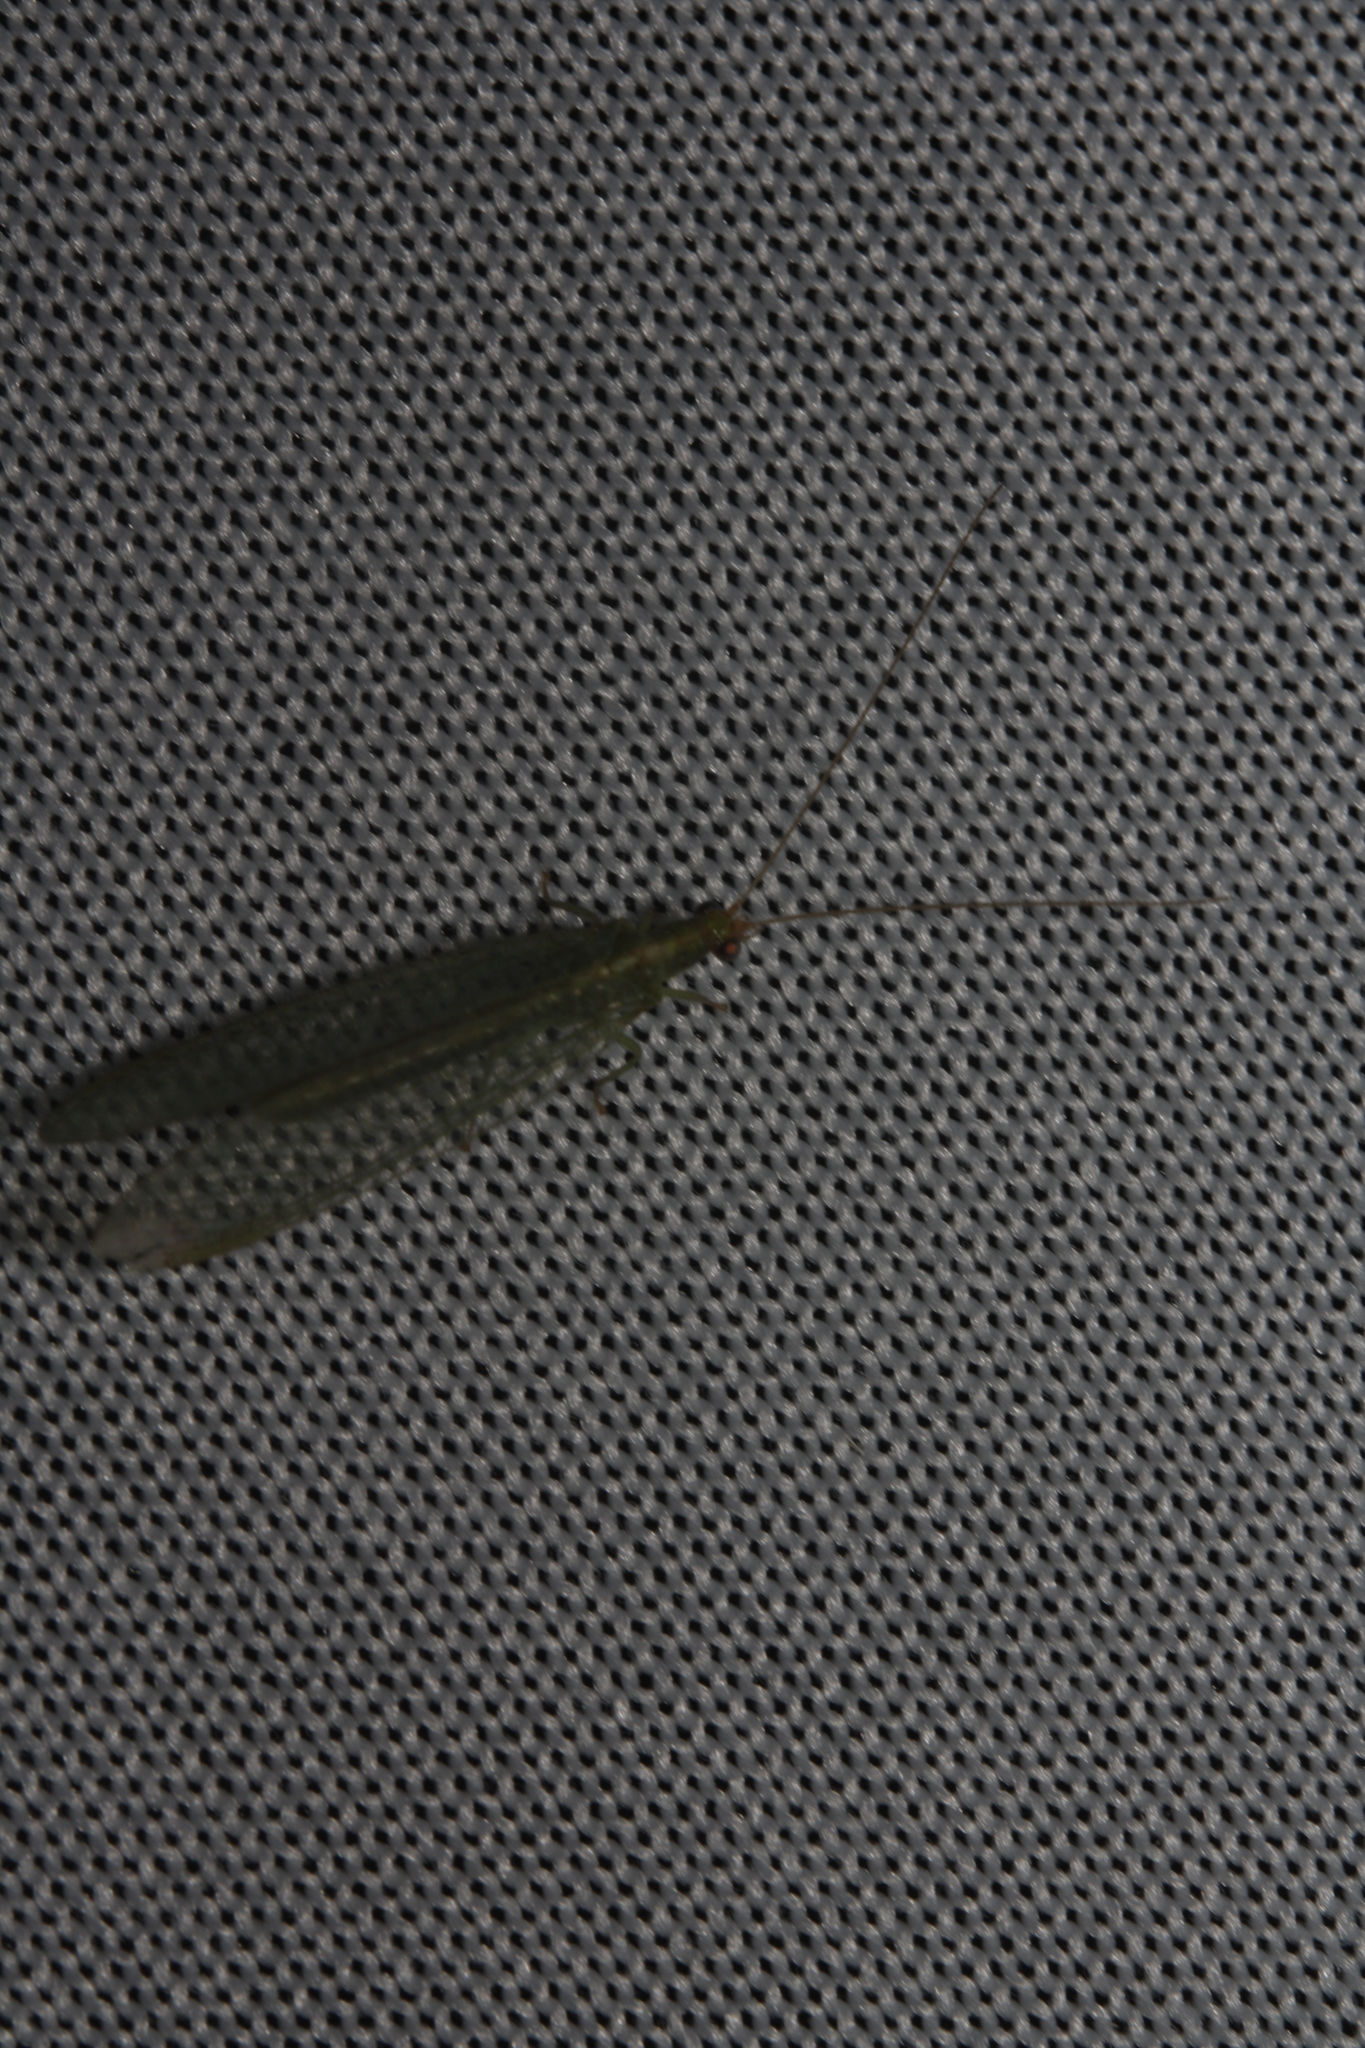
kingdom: Animalia
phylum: Arthropoda
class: Insecta
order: Neuroptera
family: Chrysopidae
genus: Chrysoperla
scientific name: Chrysoperla
